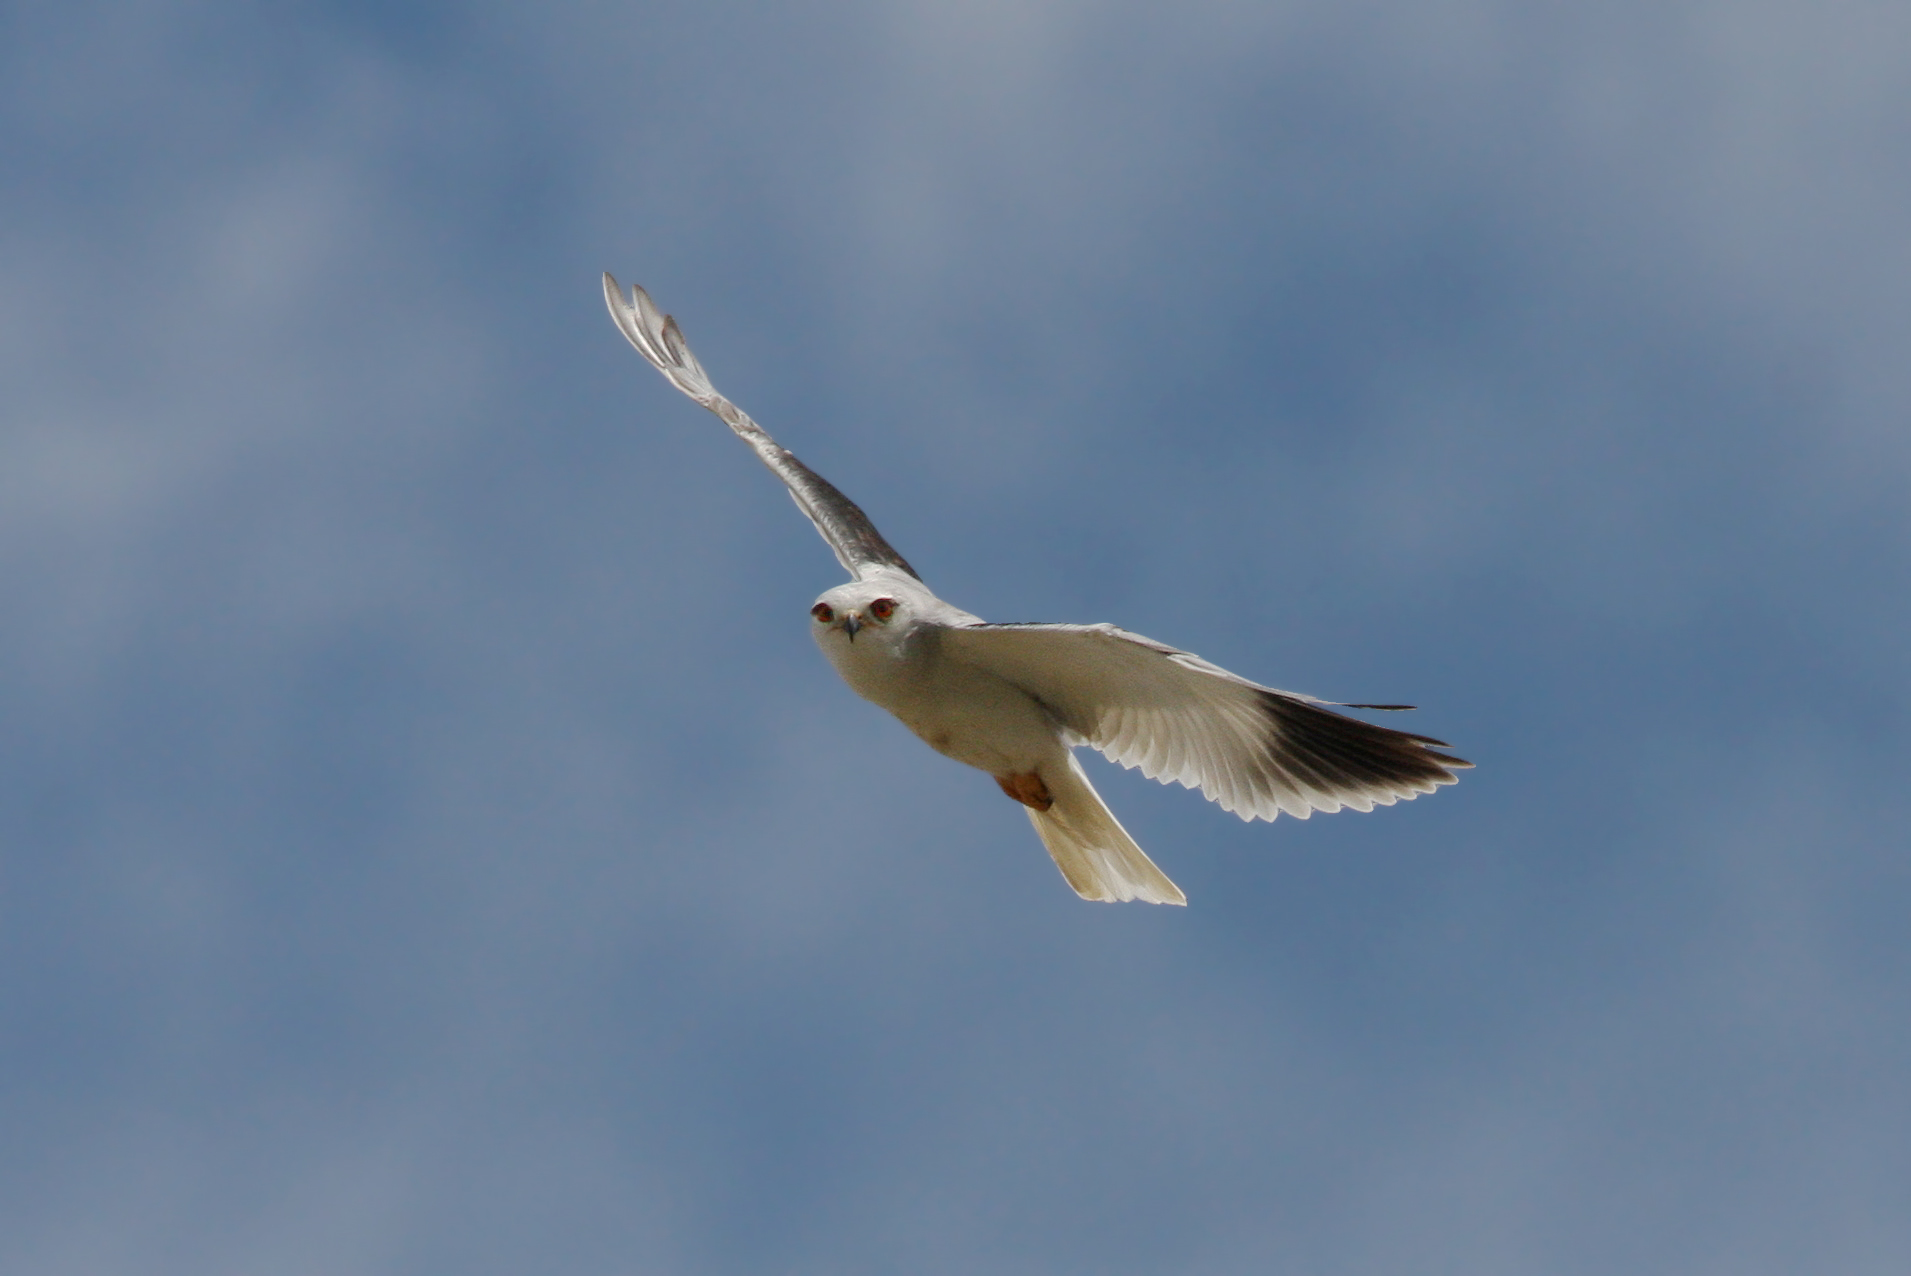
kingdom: Animalia
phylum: Chordata
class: Aves
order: Accipitriformes
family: Accipitridae
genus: Elanus
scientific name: Elanus caeruleus
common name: Black-winged kite
